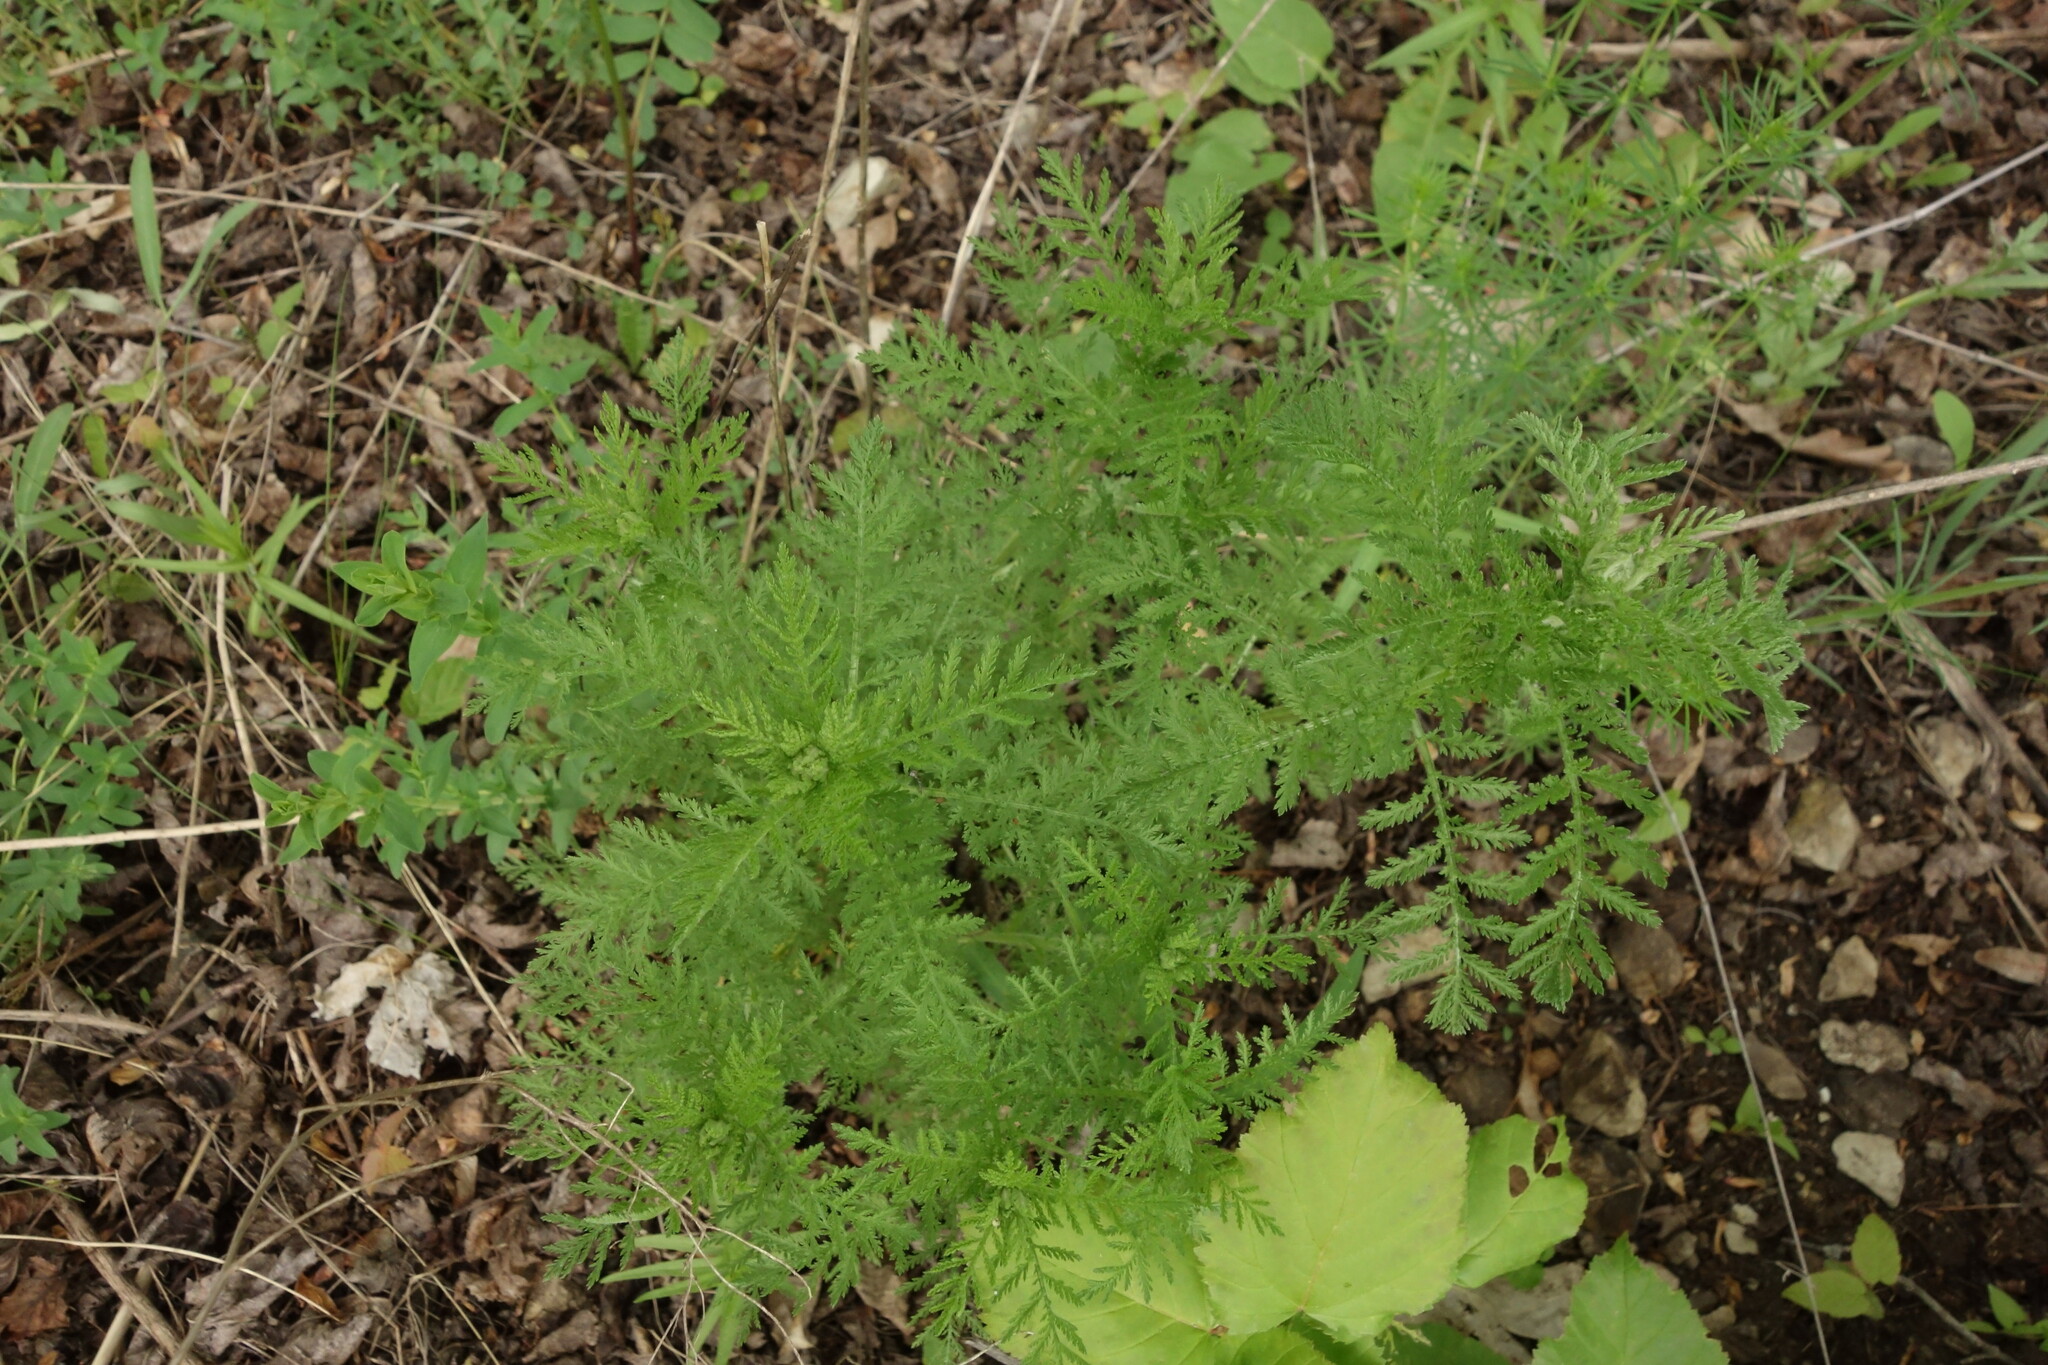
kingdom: Plantae
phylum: Tracheophyta
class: Magnoliopsida
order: Asterales
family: Asteraceae
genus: Achillea
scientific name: Achillea nobilis
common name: Noble yarrow
